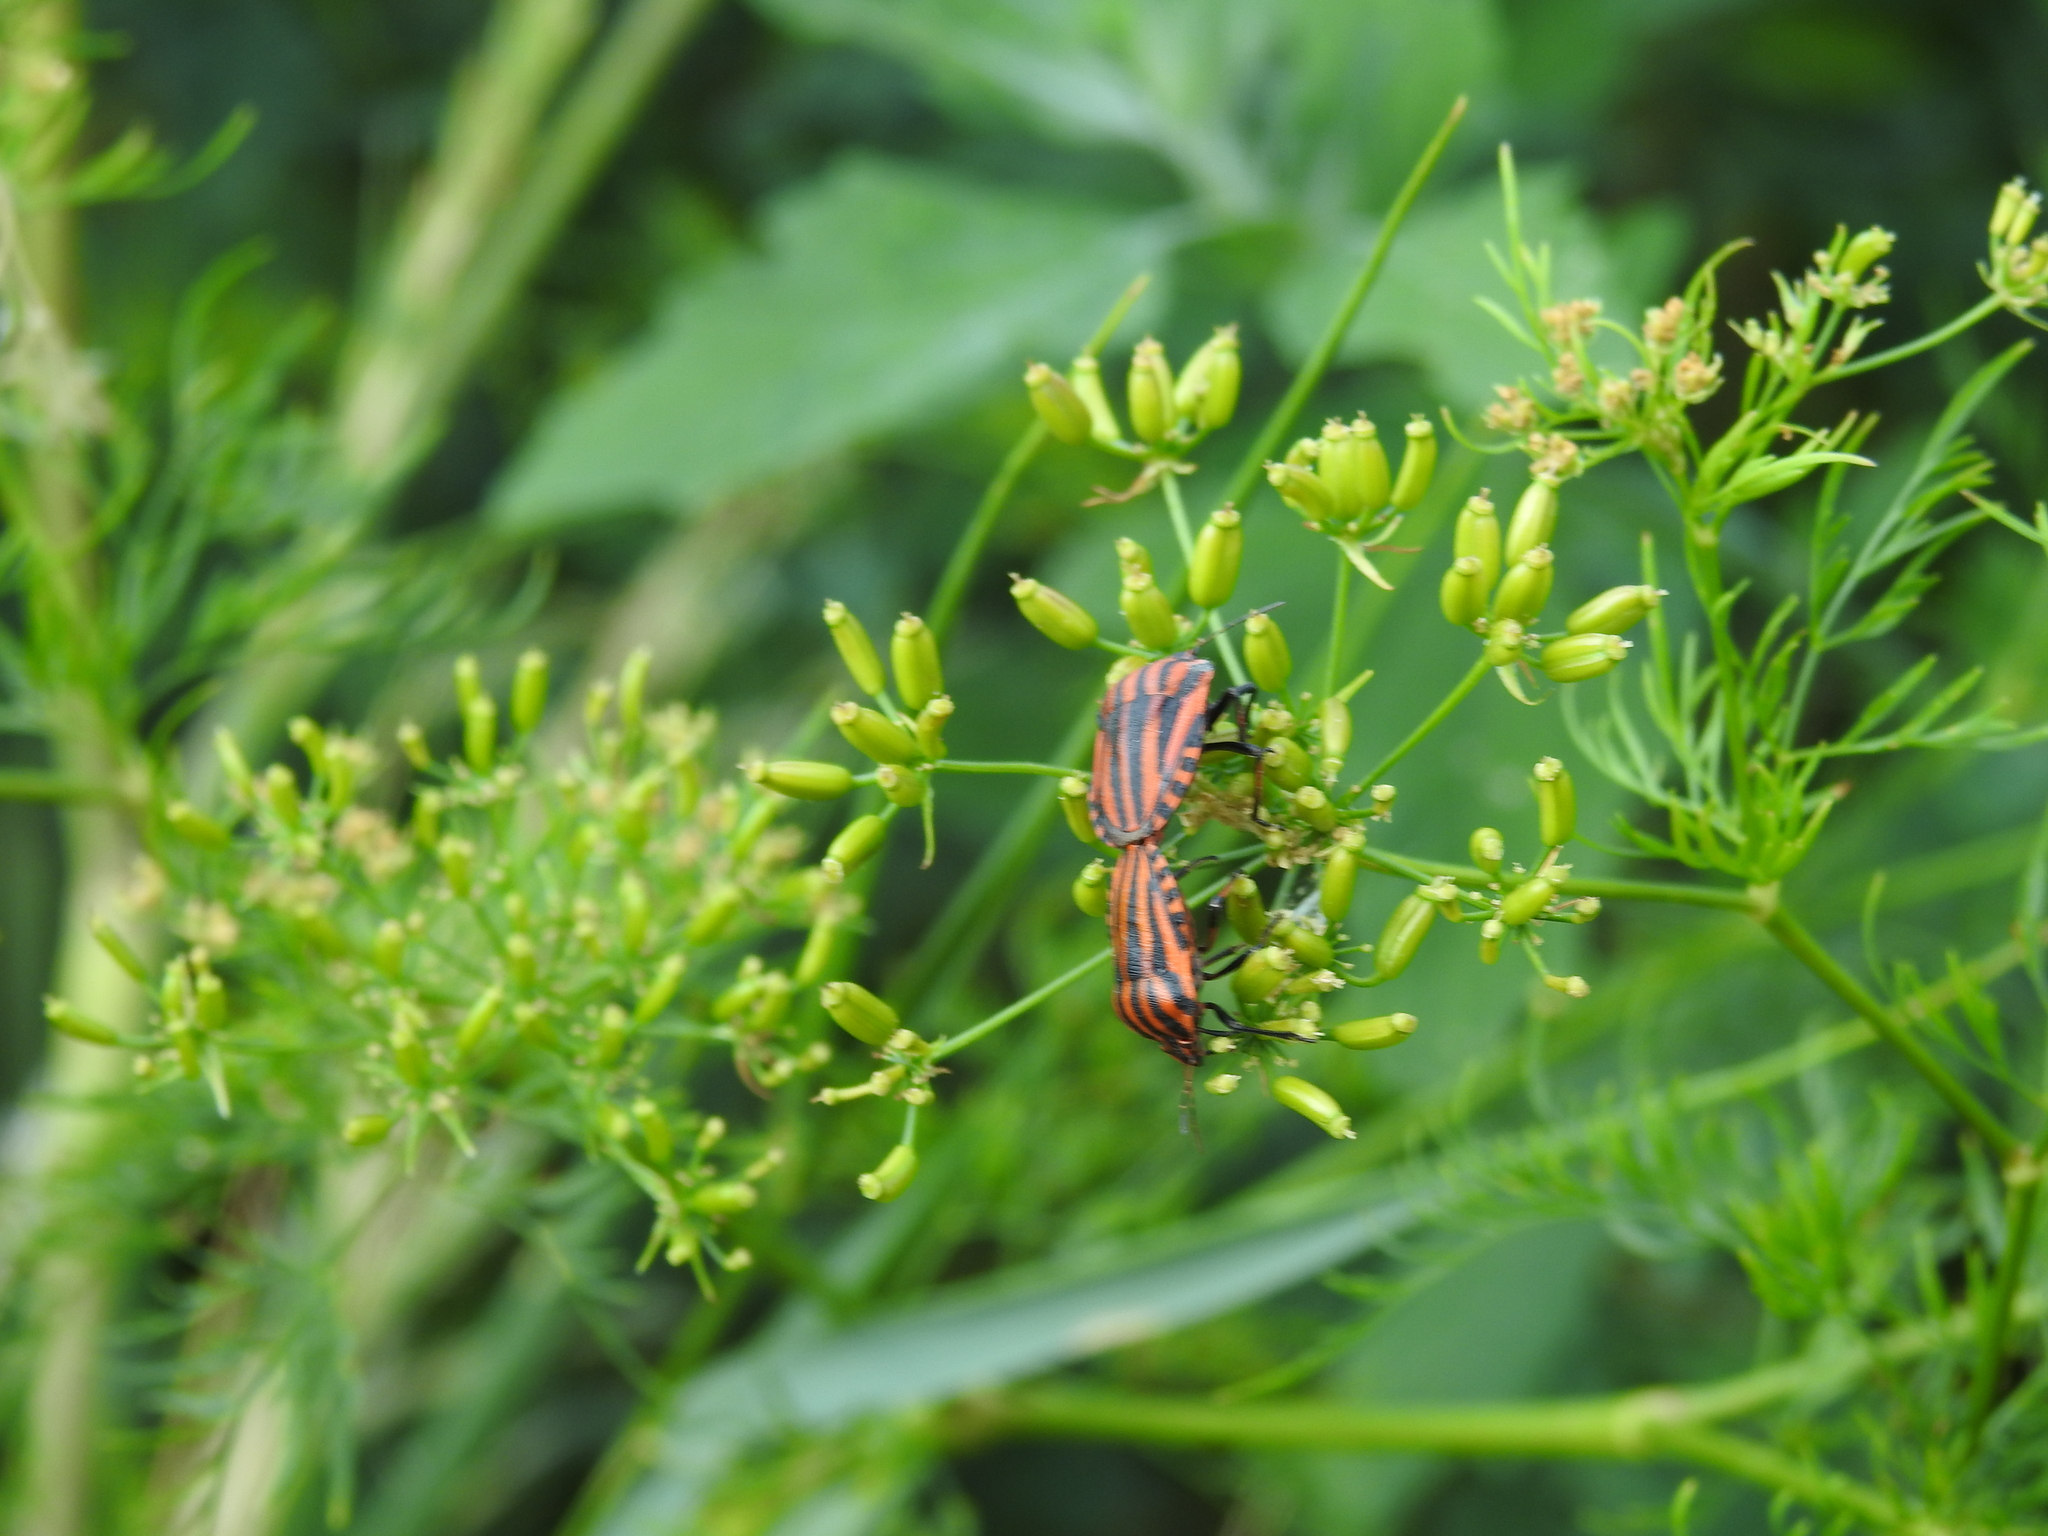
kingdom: Animalia
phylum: Arthropoda
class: Insecta
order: Hemiptera
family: Pentatomidae
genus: Graphosoma
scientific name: Graphosoma italicum
